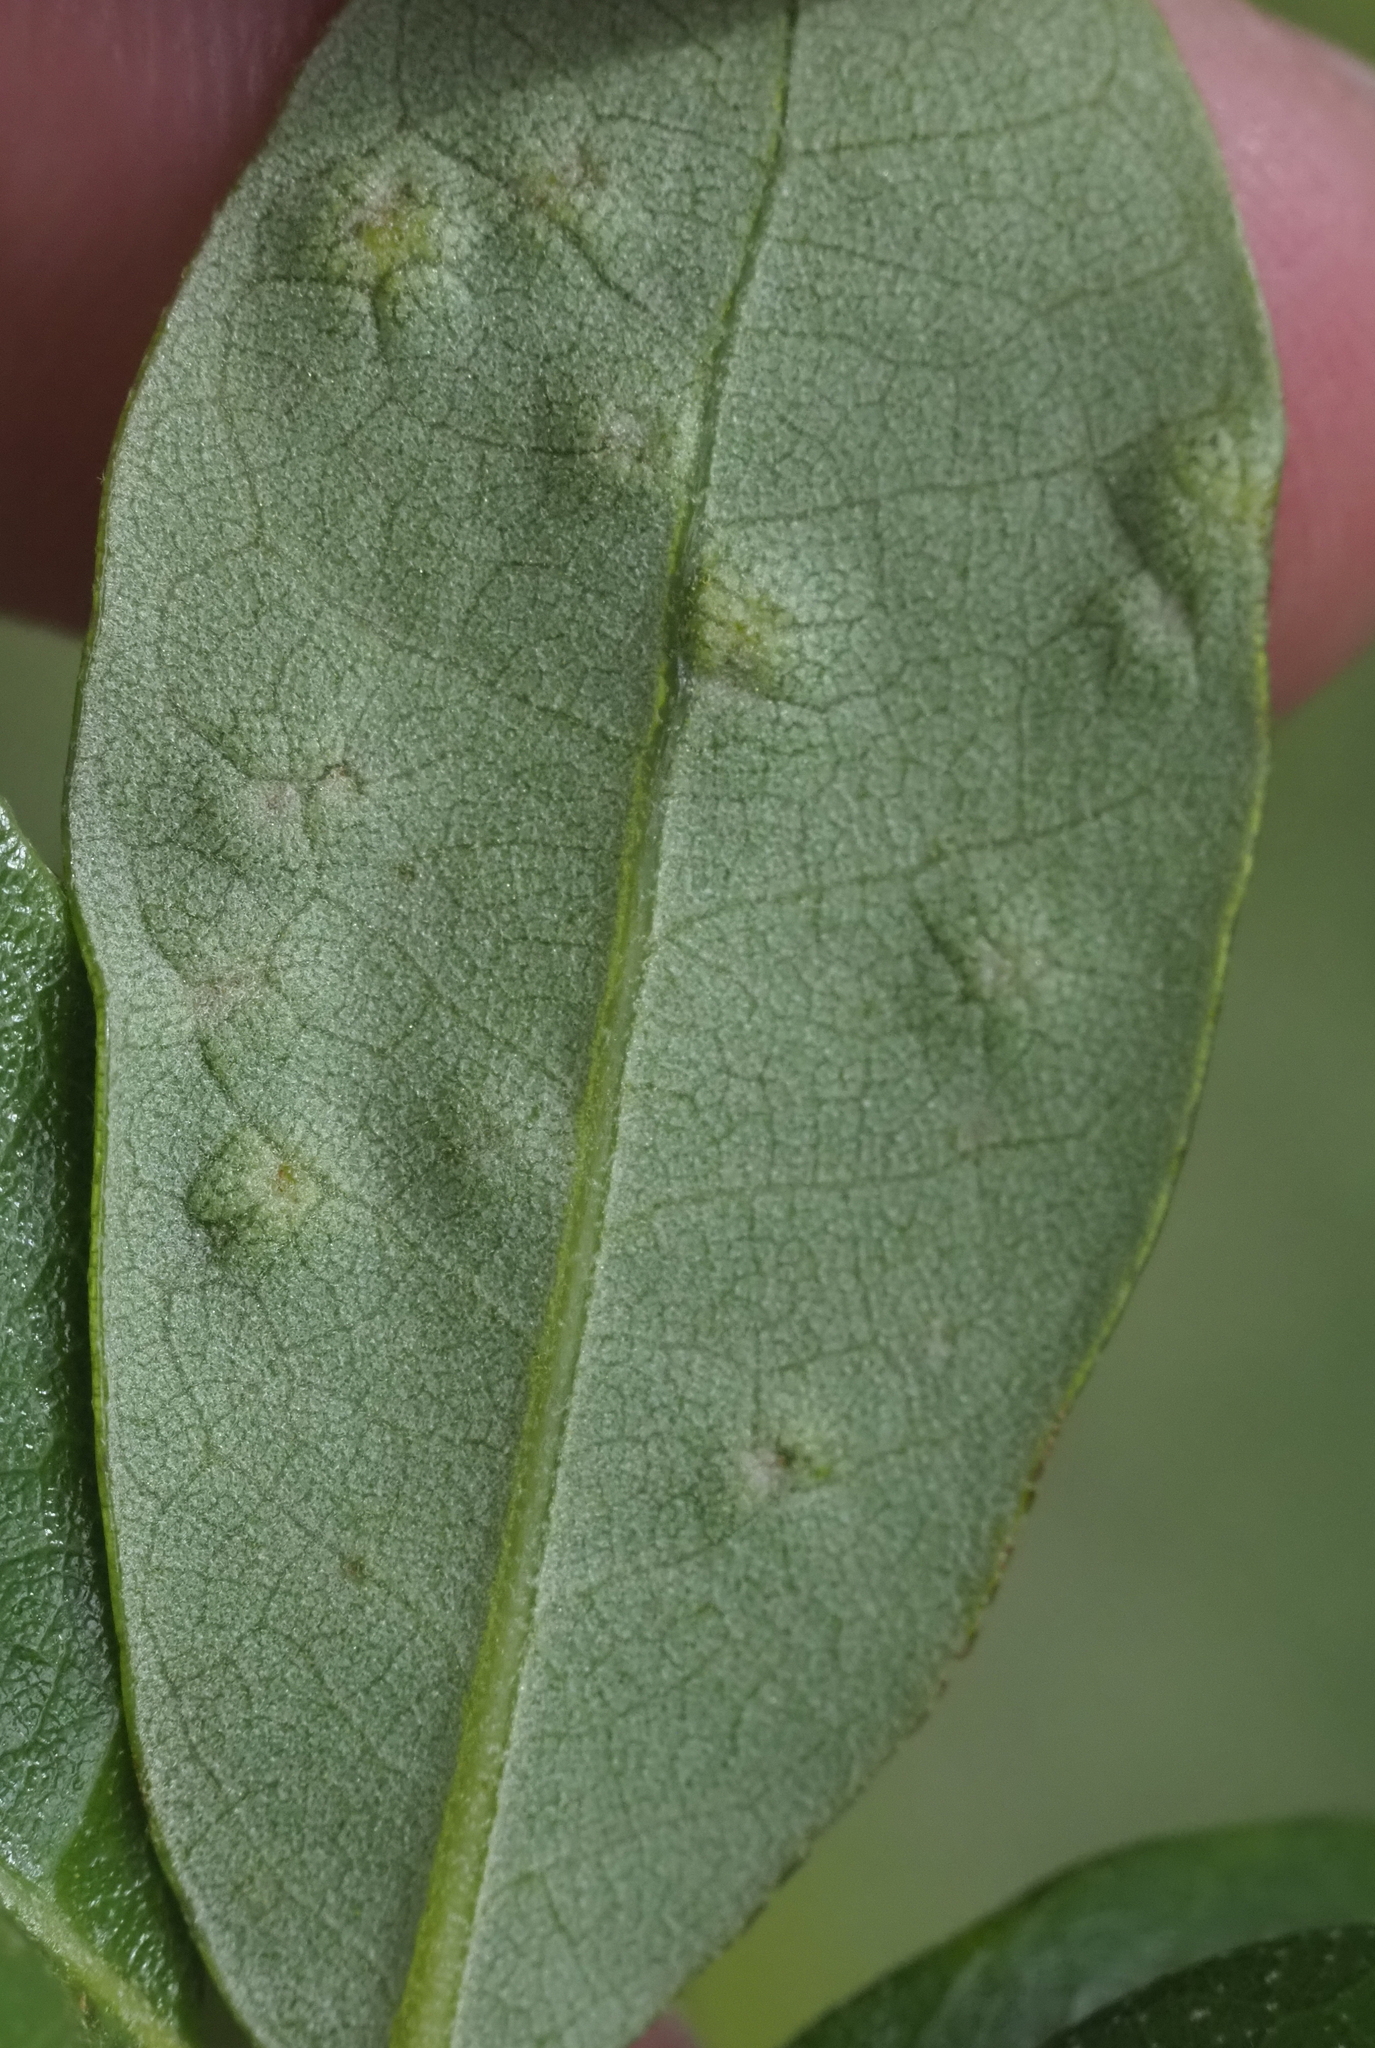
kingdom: Animalia
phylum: Arthropoda
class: Insecta
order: Hymenoptera
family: Cynipidae
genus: Neuroterus
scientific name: Neuroterus bussae
